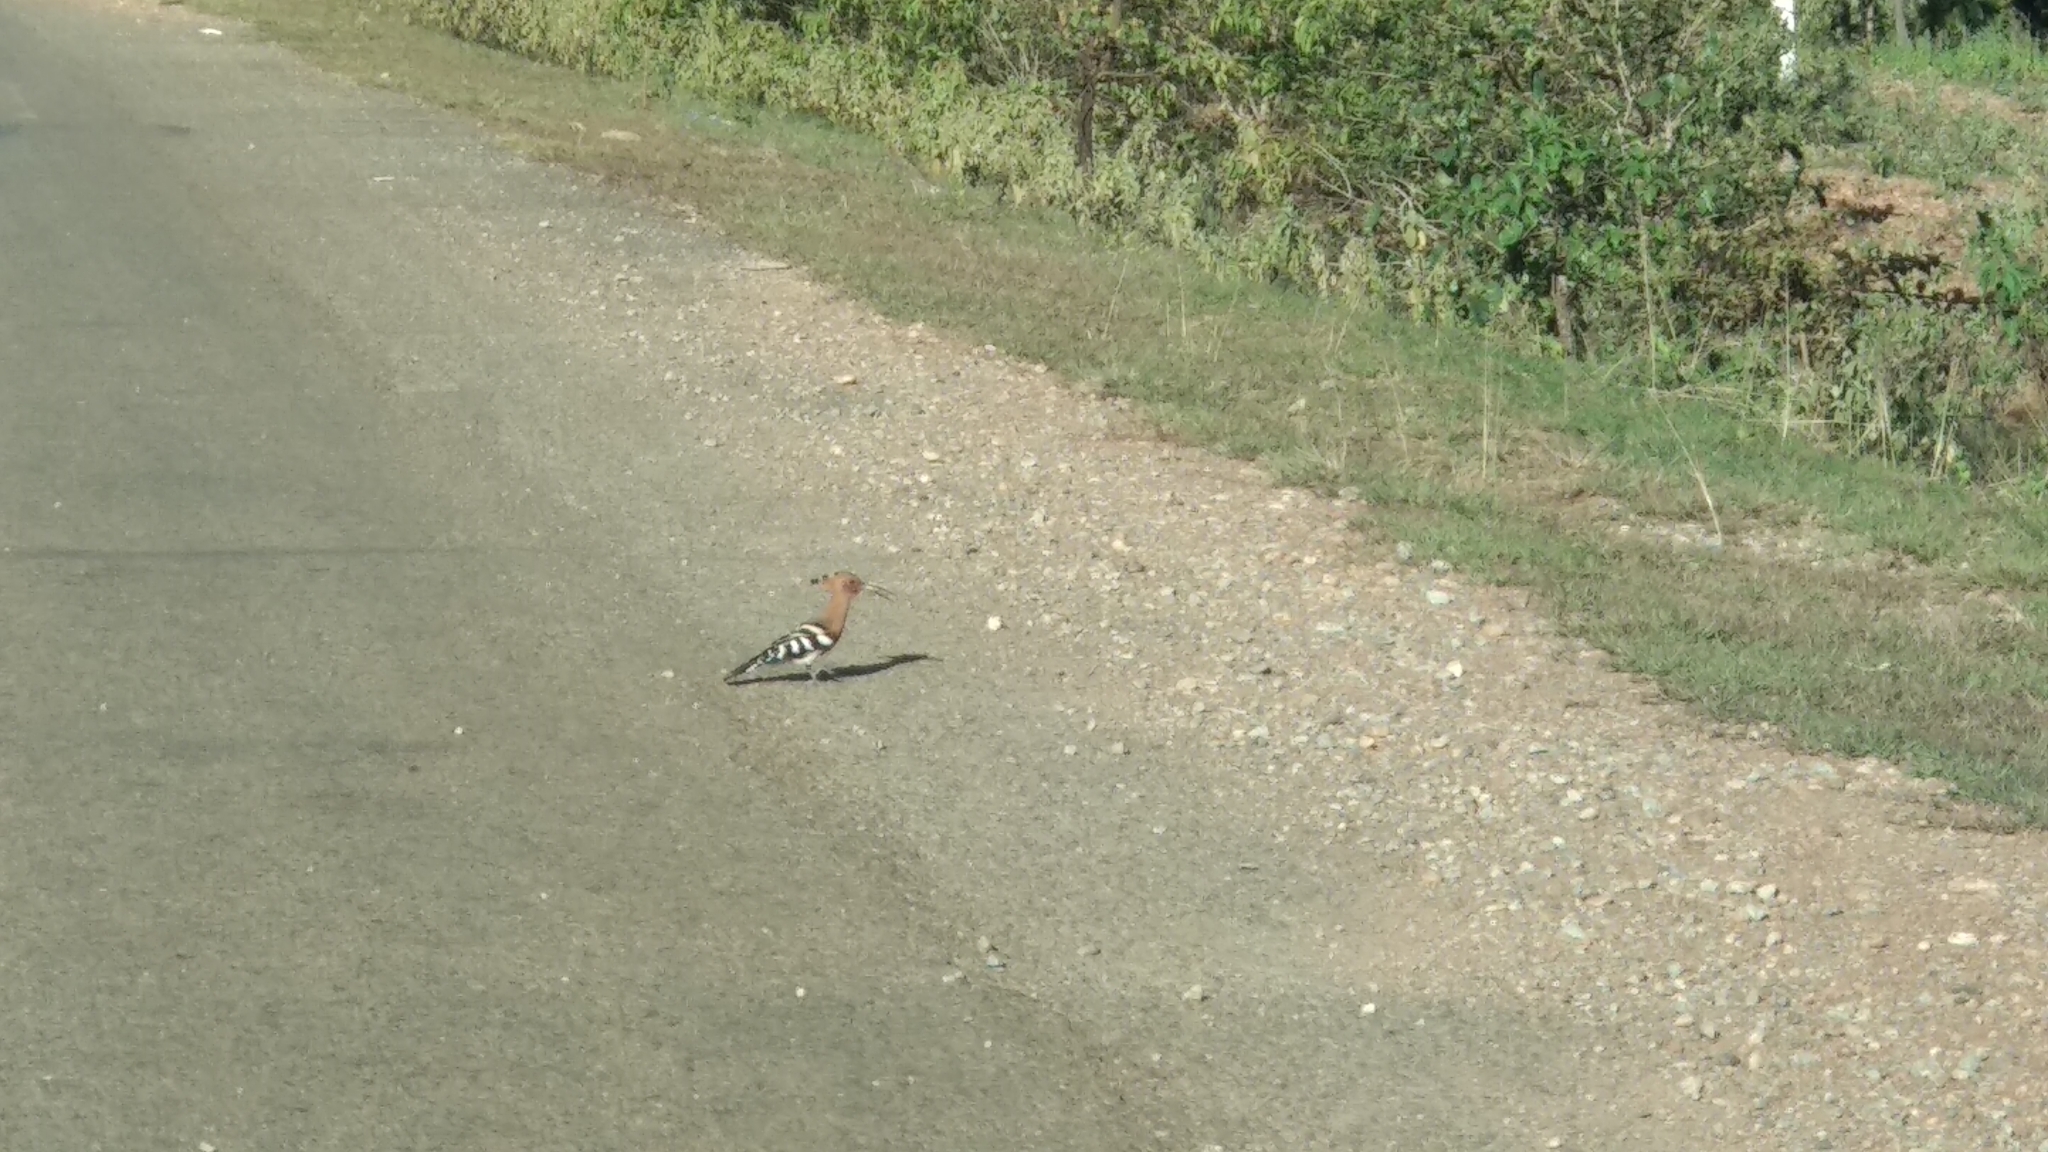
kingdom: Animalia
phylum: Chordata
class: Aves
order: Bucerotiformes
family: Upupidae
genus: Upupa
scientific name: Upupa epops
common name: Eurasian hoopoe
